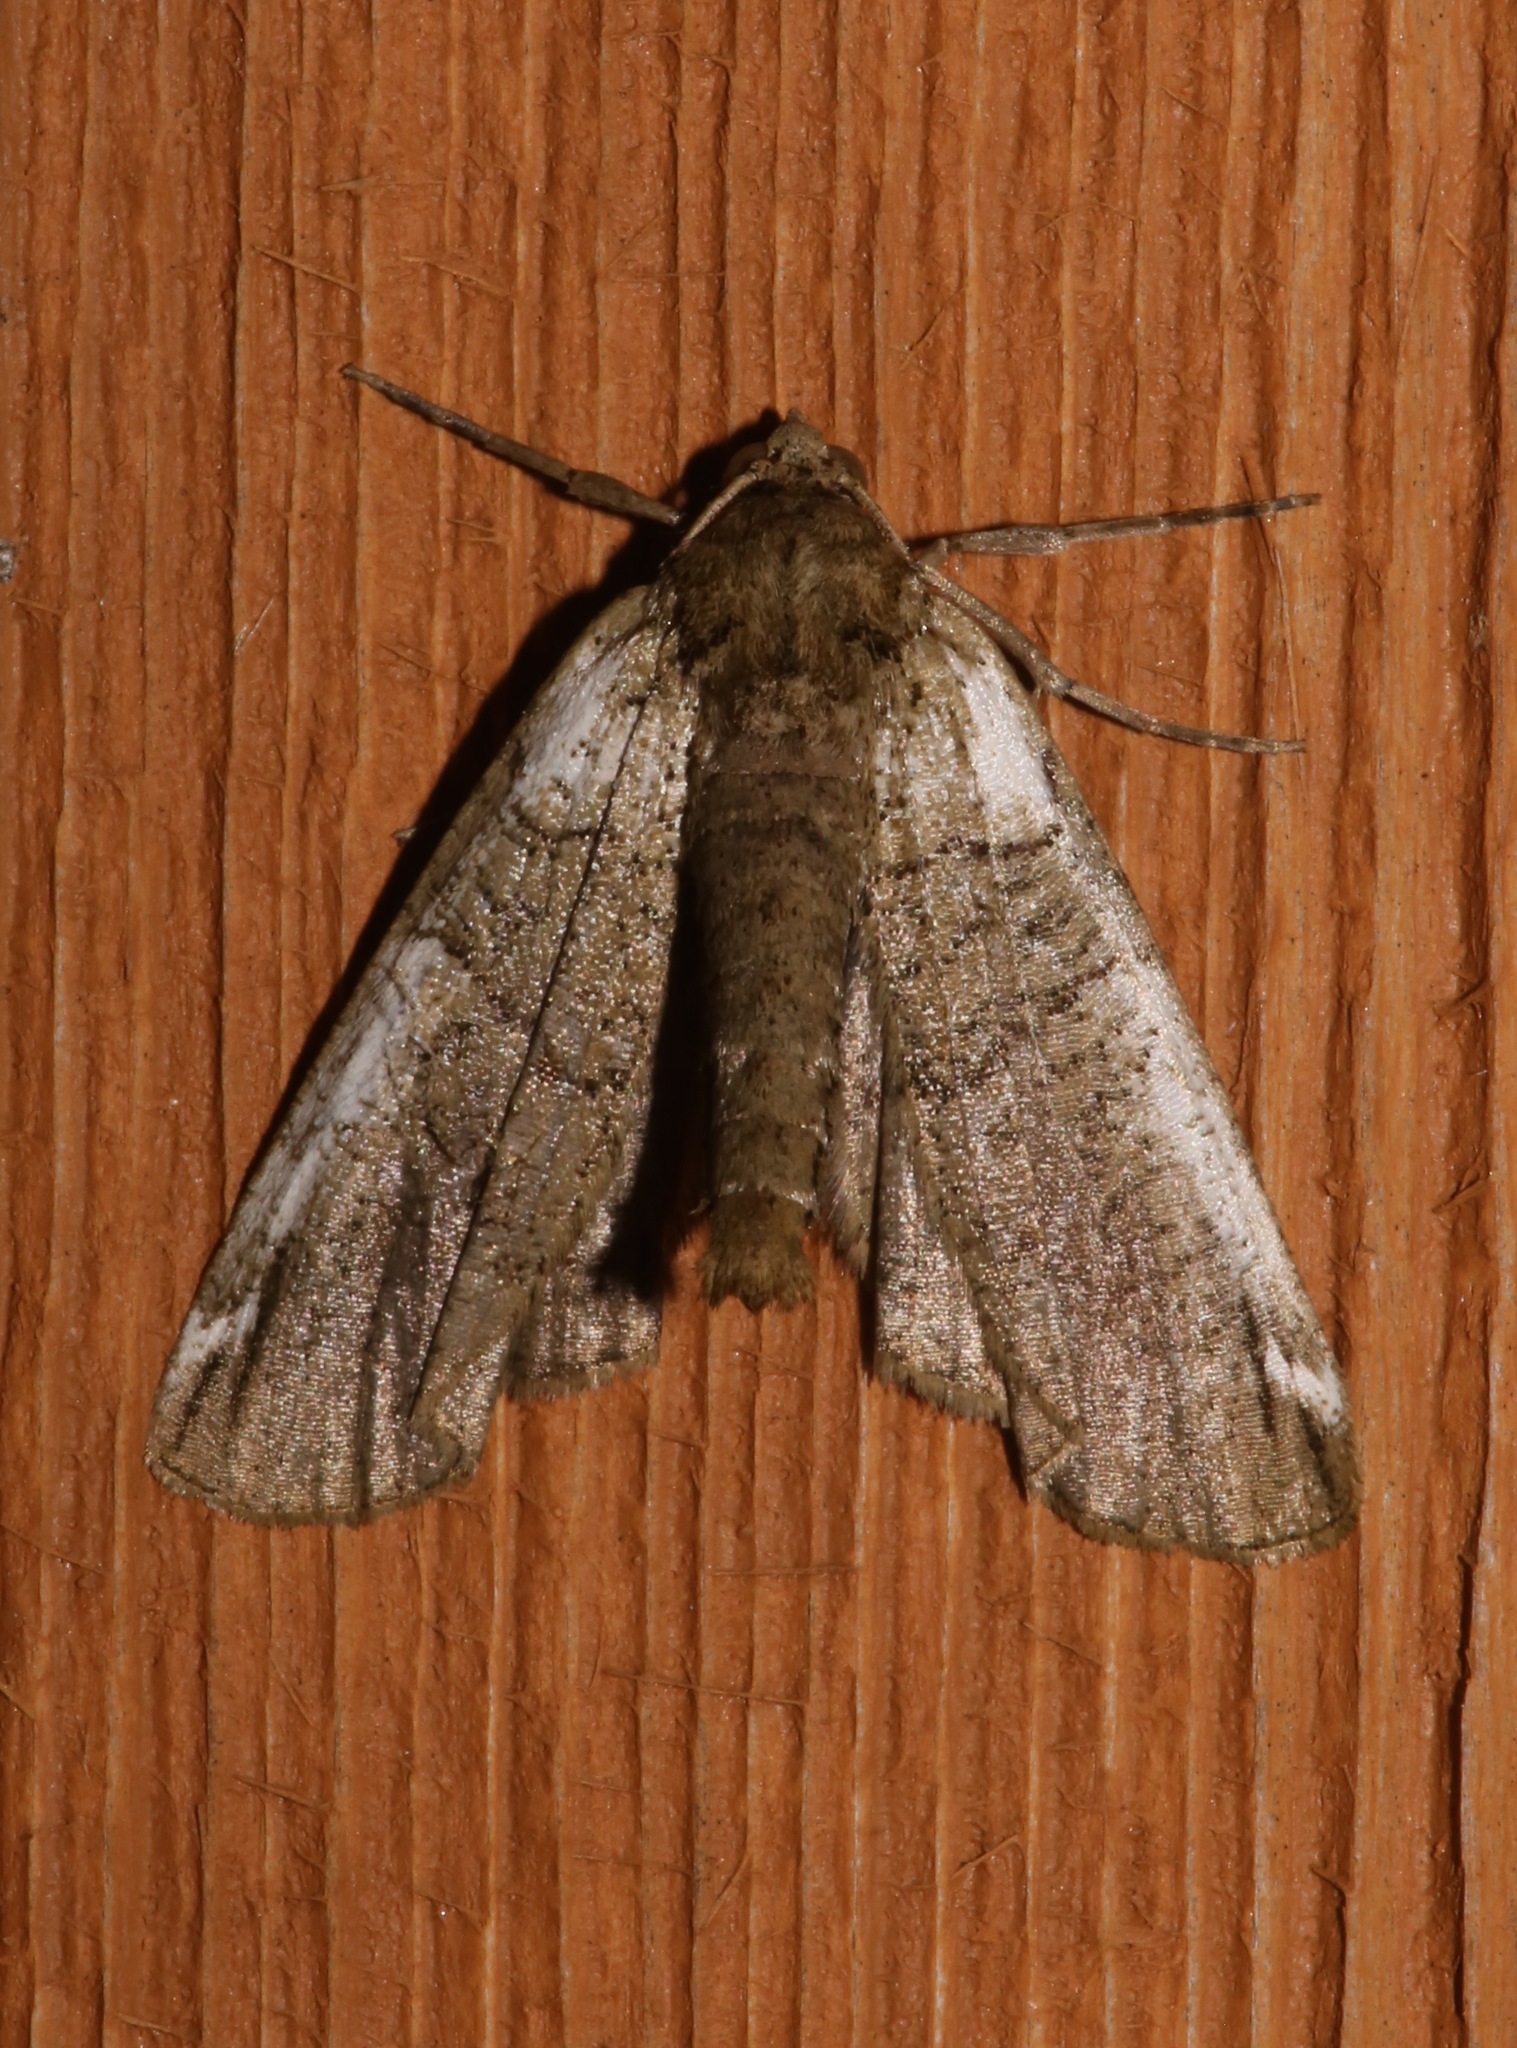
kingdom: Animalia
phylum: Arthropoda
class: Insecta
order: Lepidoptera
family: Geometridae
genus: Ceratonyx
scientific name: Ceratonyx satanaria
